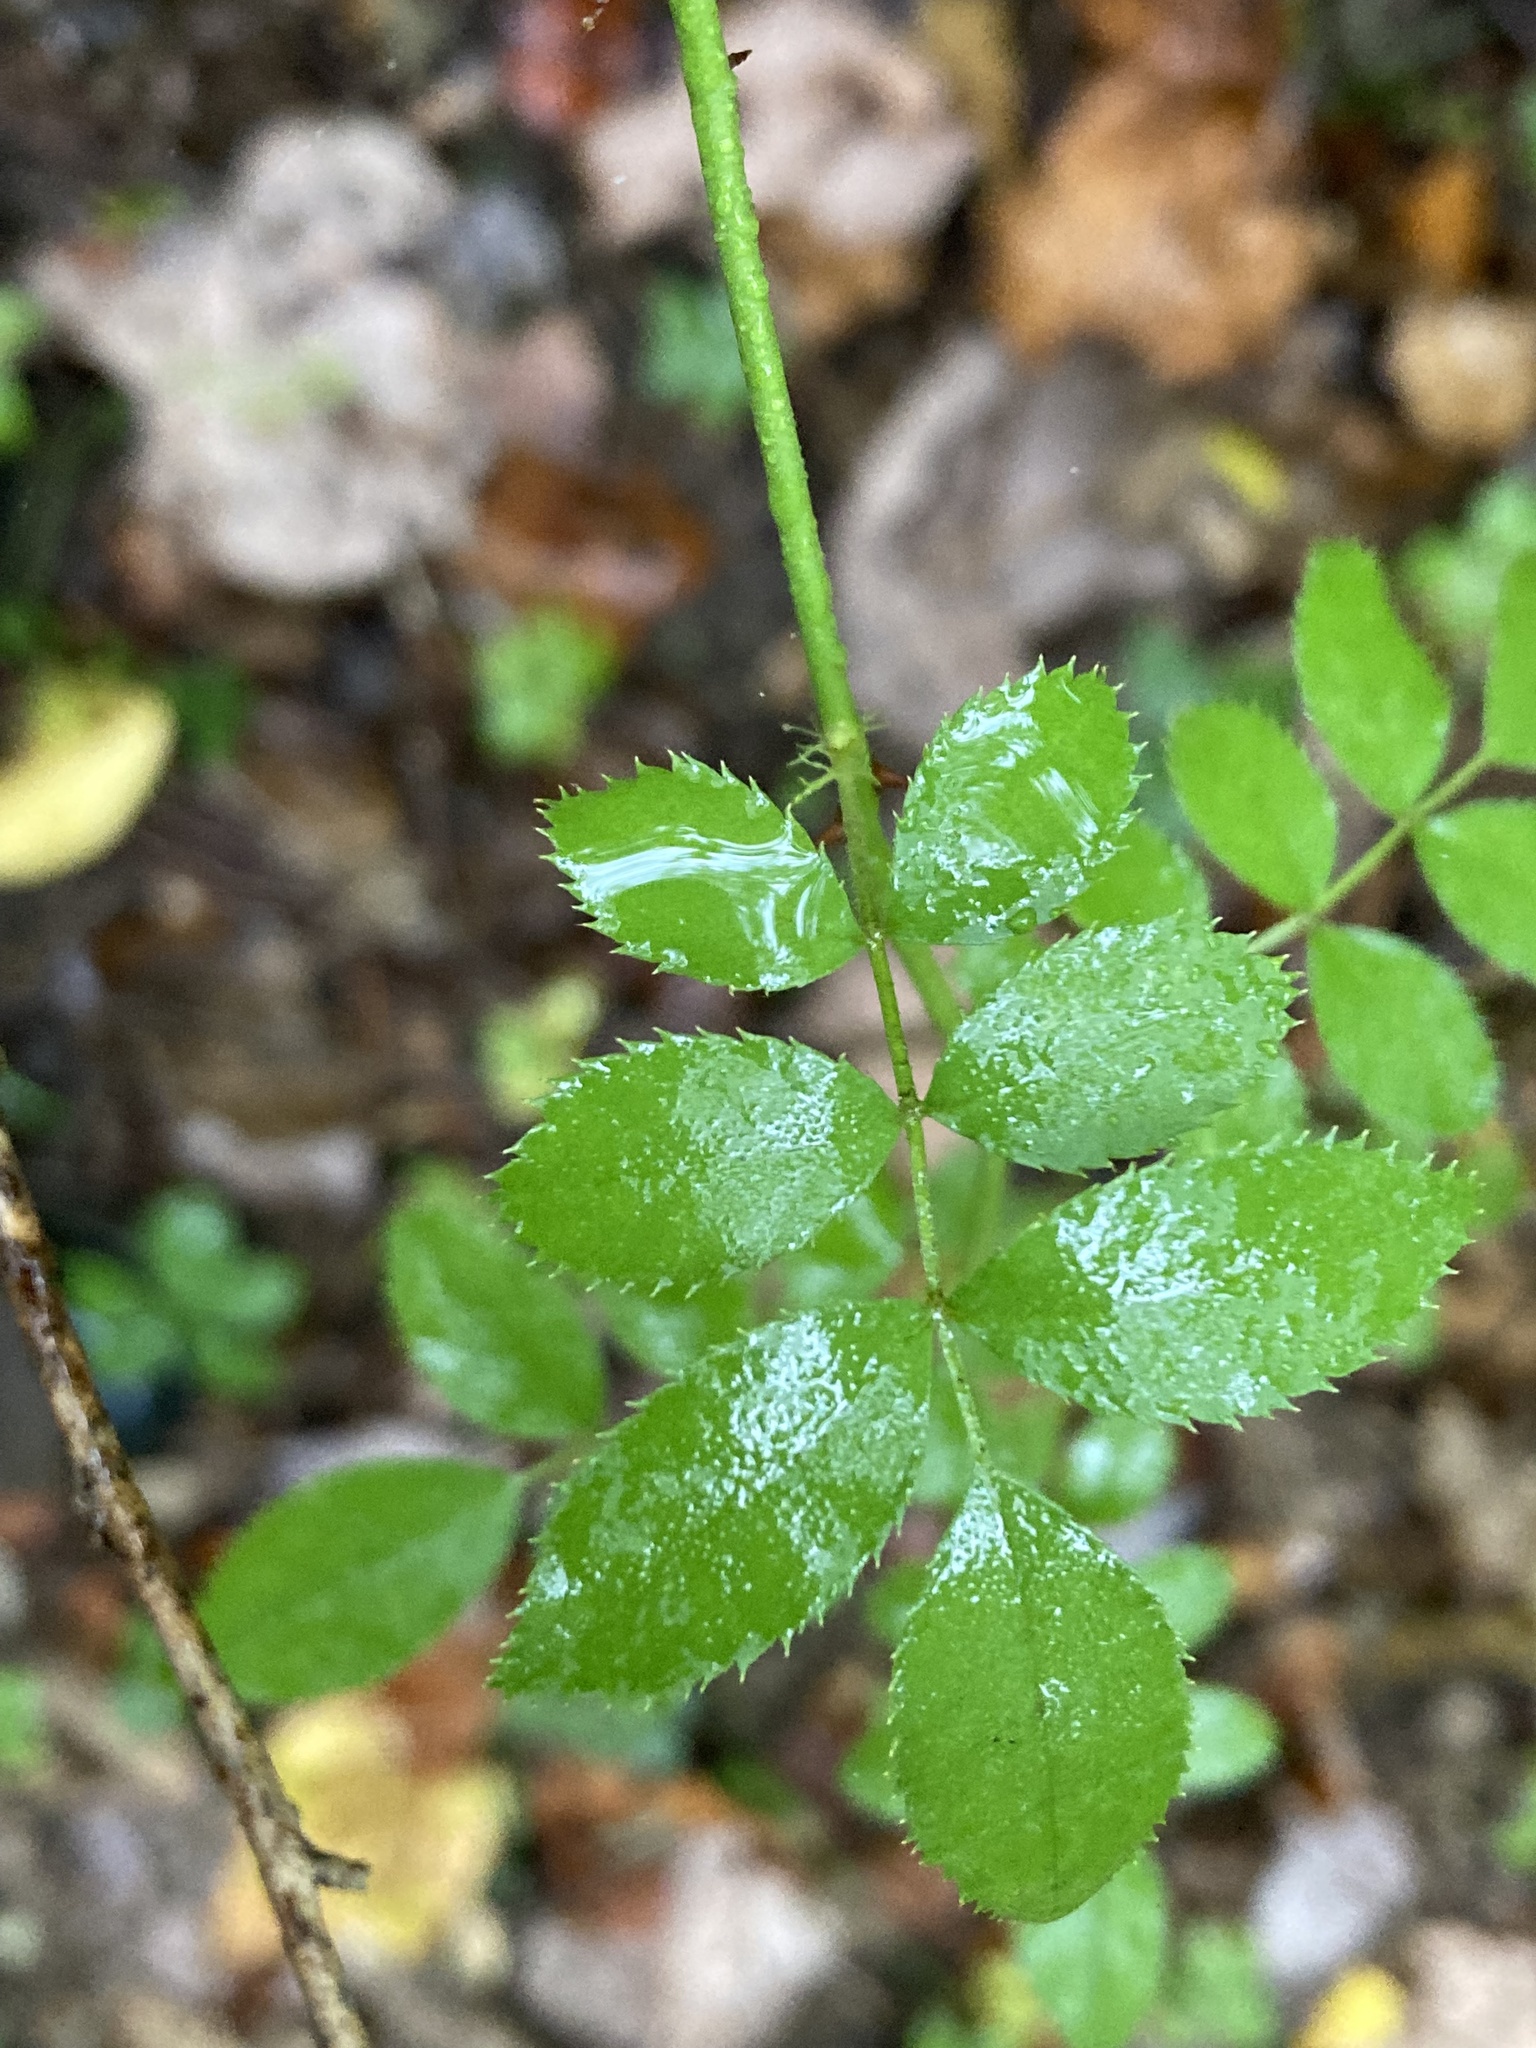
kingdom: Plantae
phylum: Tracheophyta
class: Magnoliopsida
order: Rosales
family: Rosaceae
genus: Rosa
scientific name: Rosa multiflora
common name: Multiflora rose
